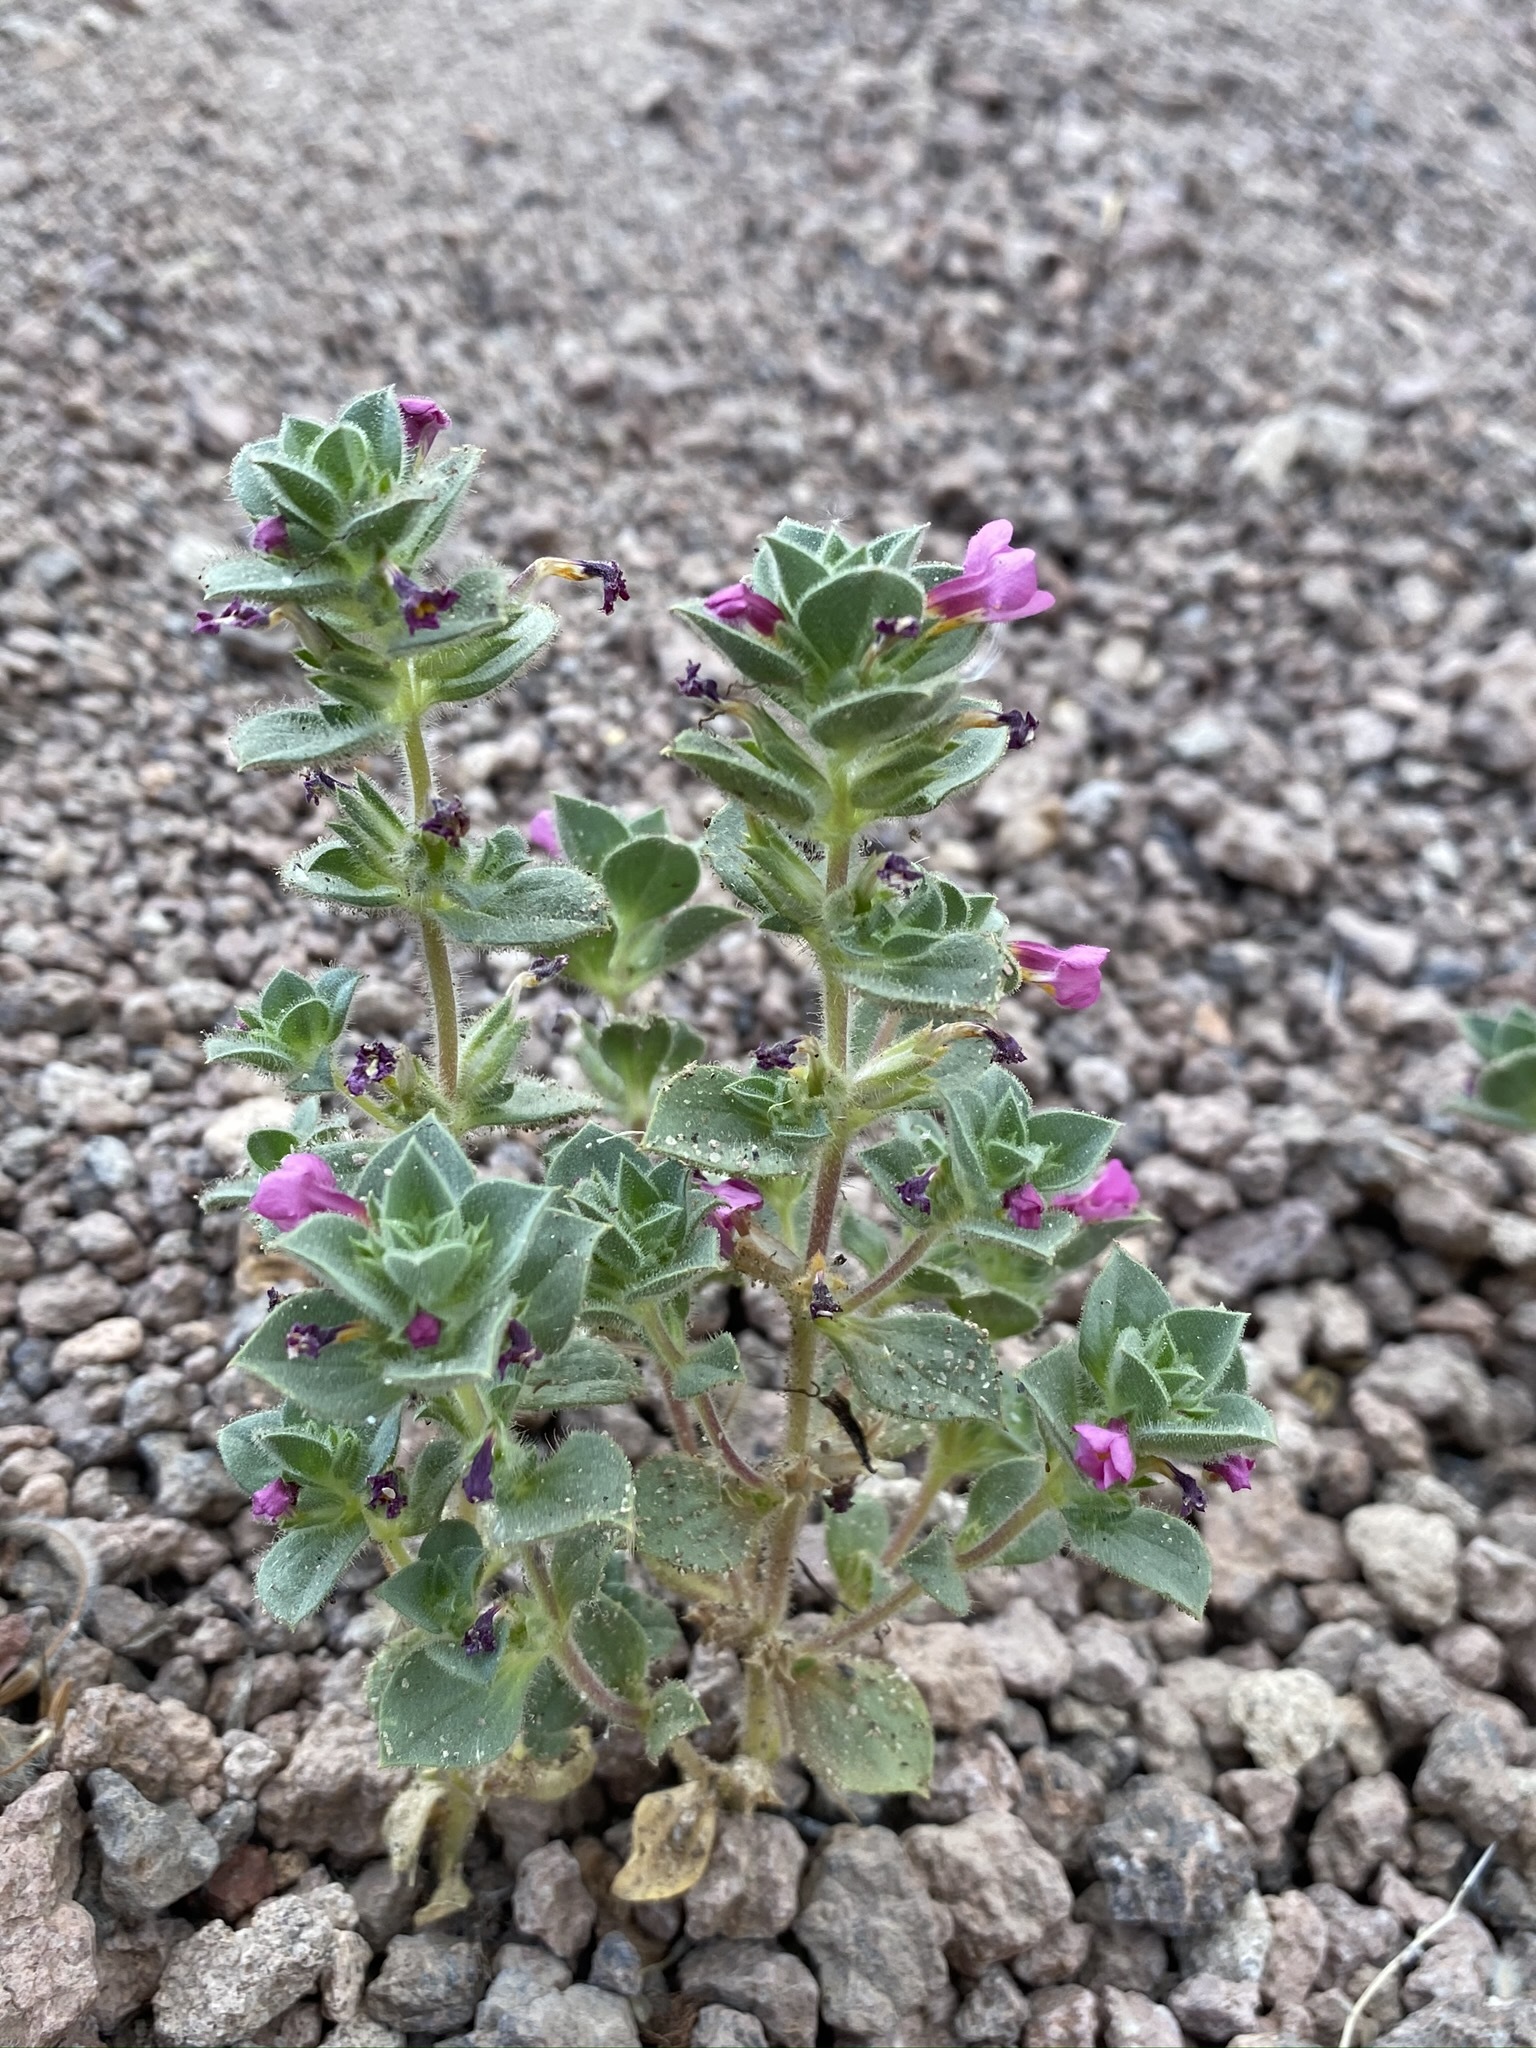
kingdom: Plantae
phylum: Tracheophyta
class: Magnoliopsida
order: Lamiales
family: Phrymaceae
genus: Diplacus
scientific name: Diplacus bigelovii
